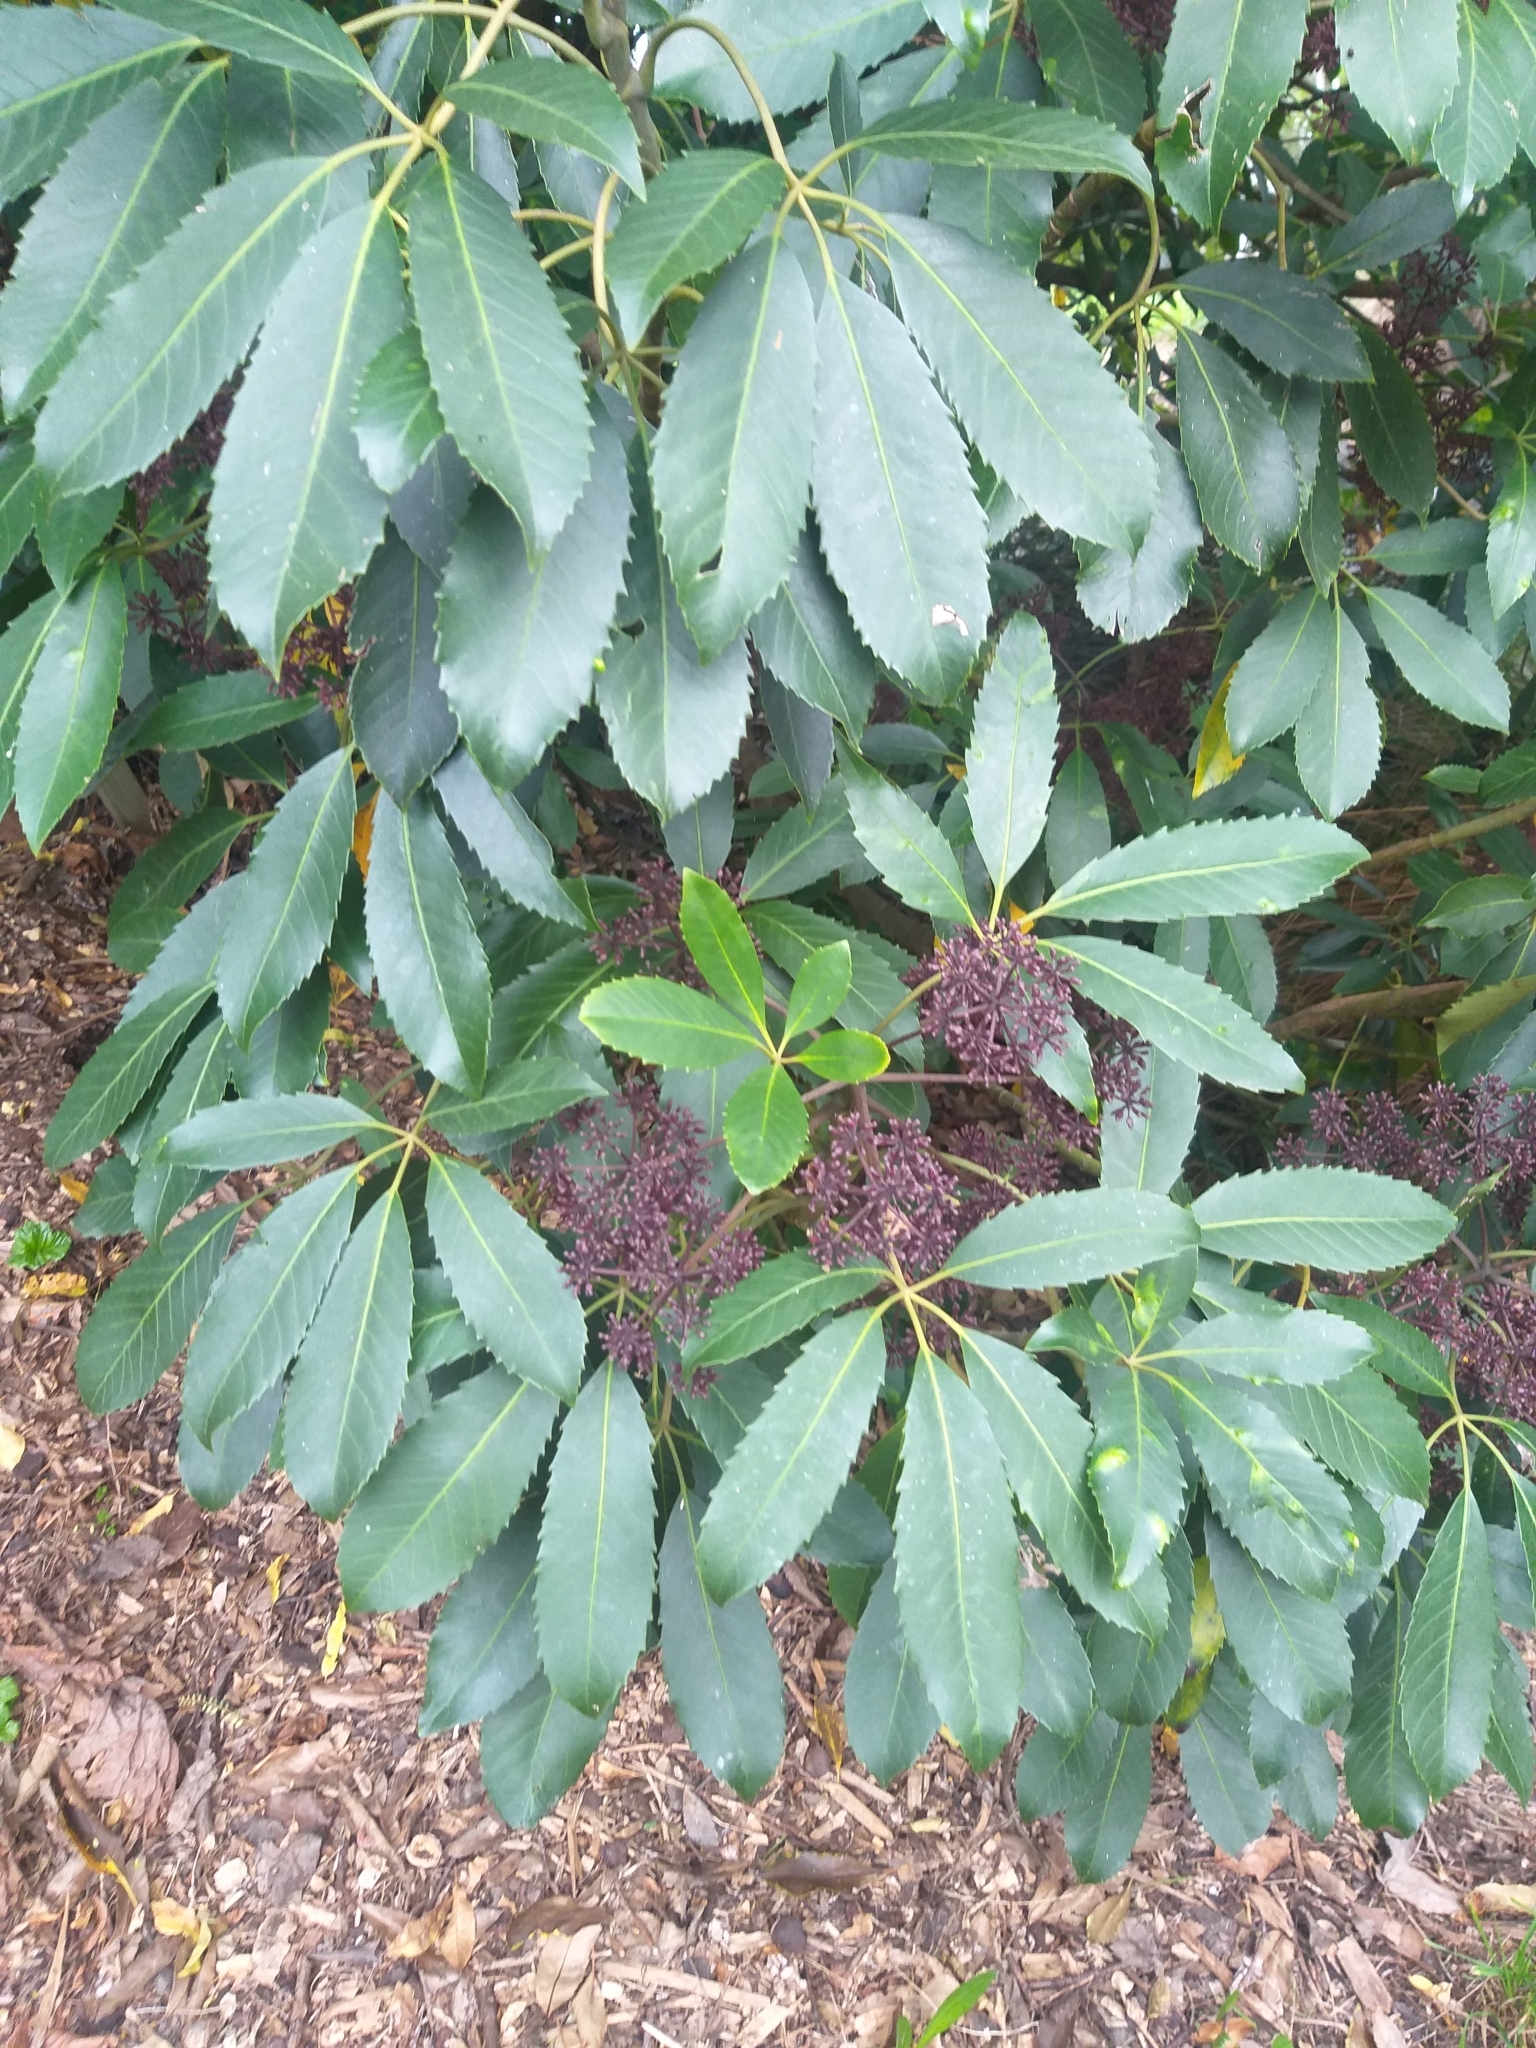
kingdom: Plantae
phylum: Tracheophyta
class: Magnoliopsida
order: Apiales
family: Araliaceae
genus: Neopanax
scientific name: Neopanax arboreus
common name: Five-fingers
